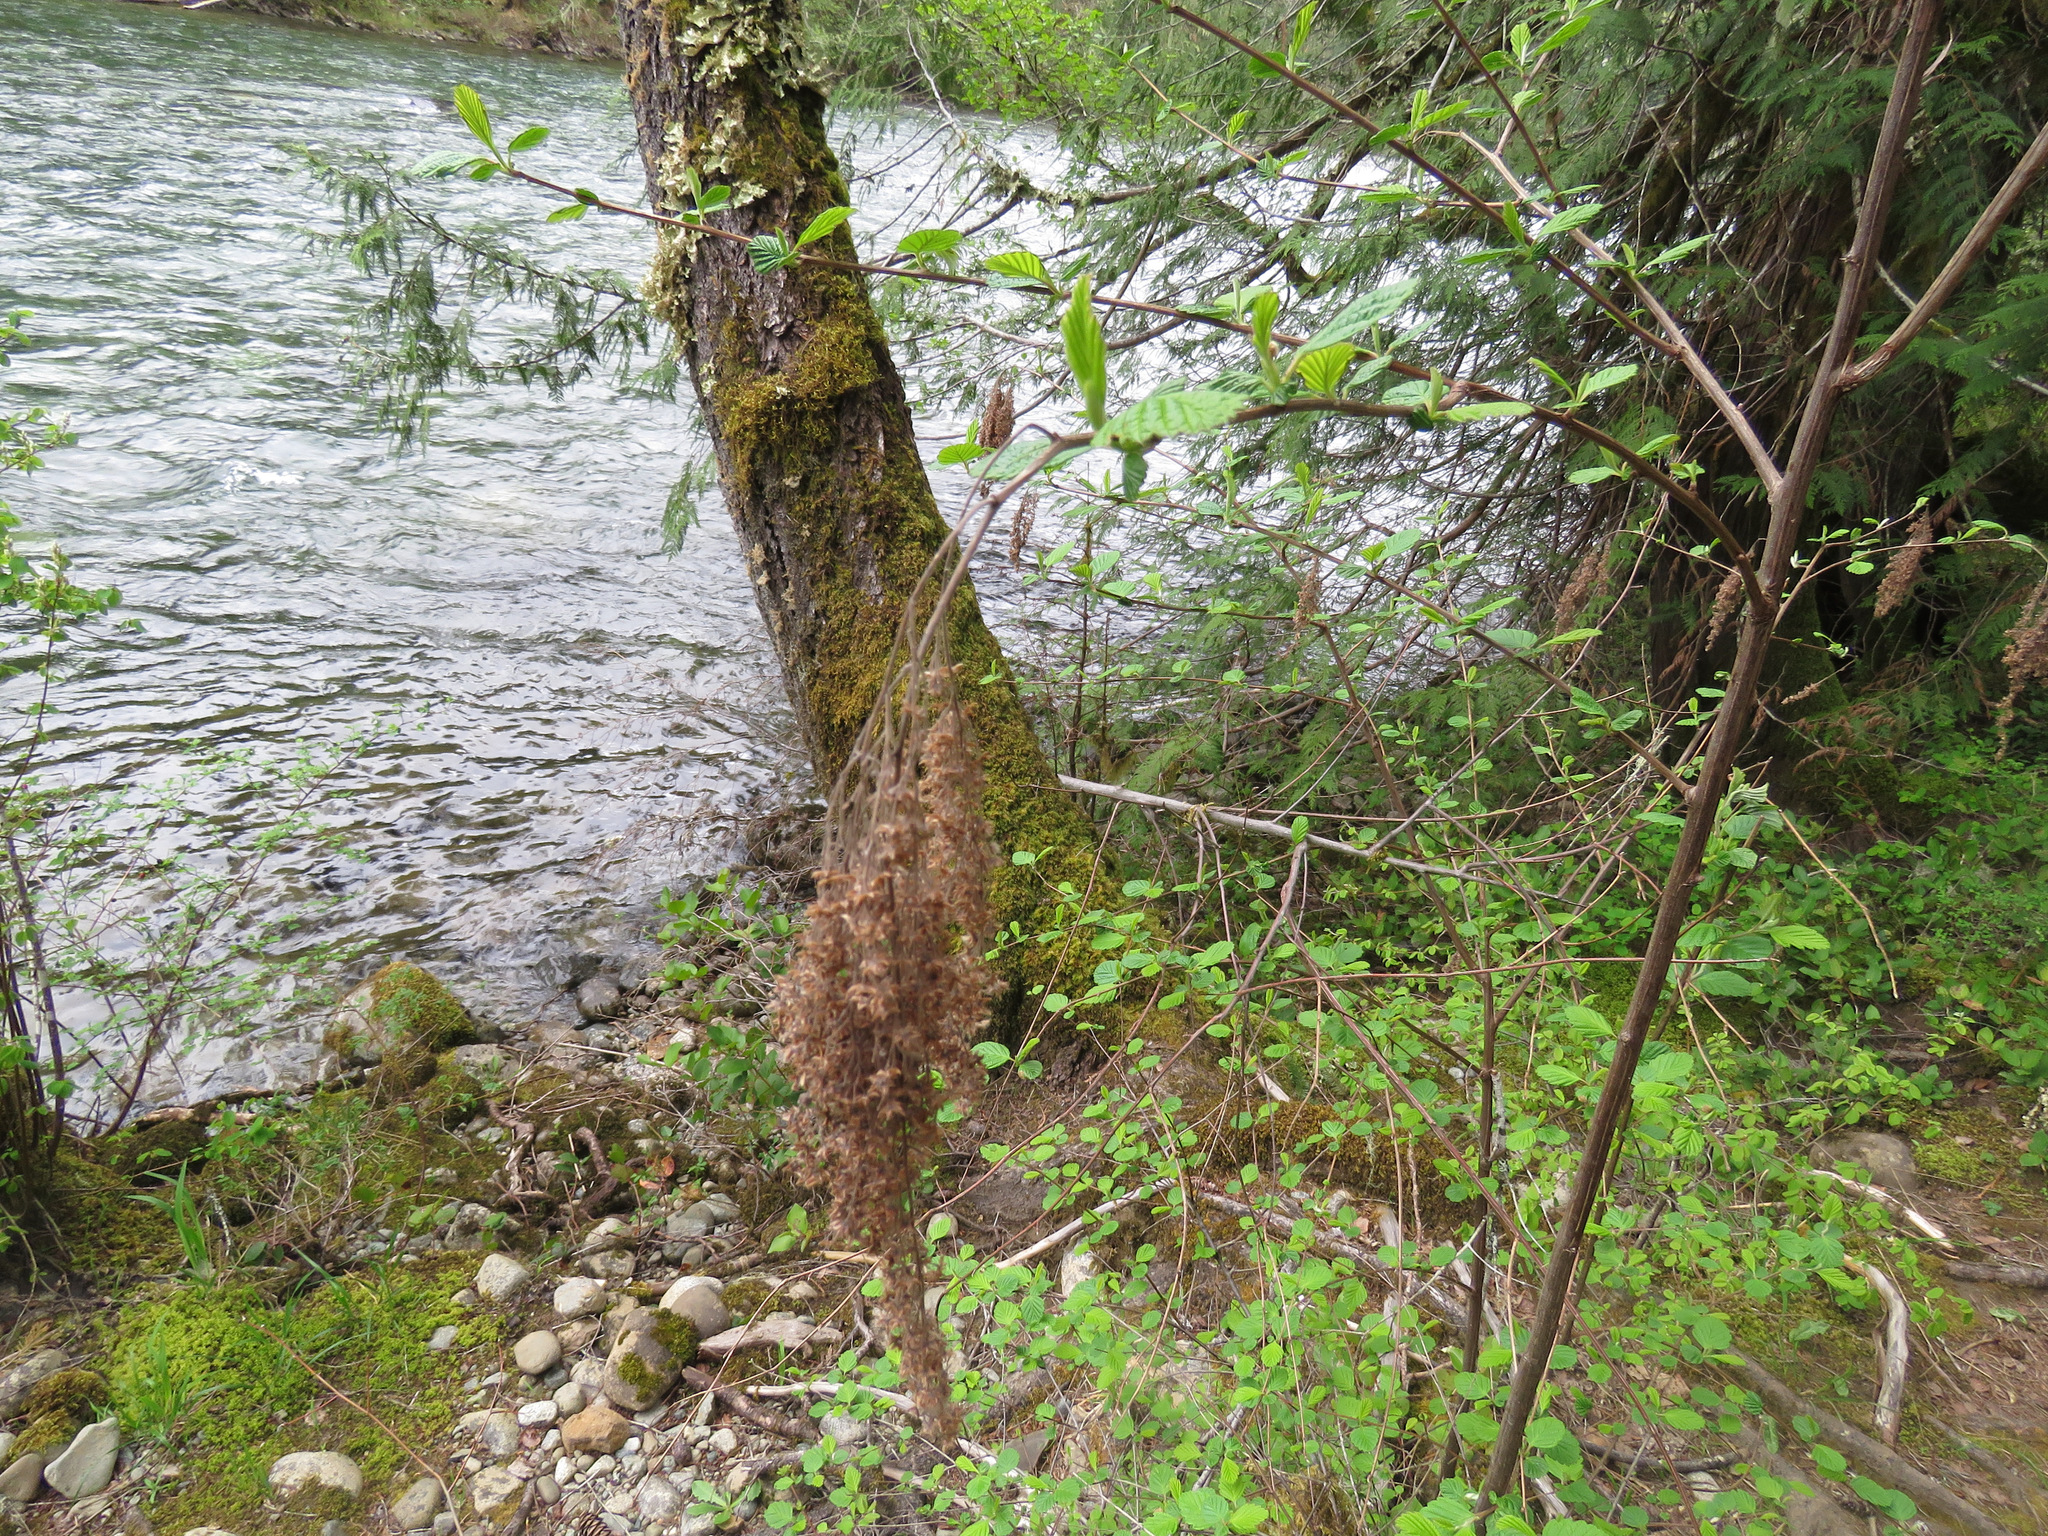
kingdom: Plantae
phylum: Tracheophyta
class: Magnoliopsida
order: Rosales
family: Rosaceae
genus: Holodiscus
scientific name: Holodiscus discolor
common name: Oceanspray
